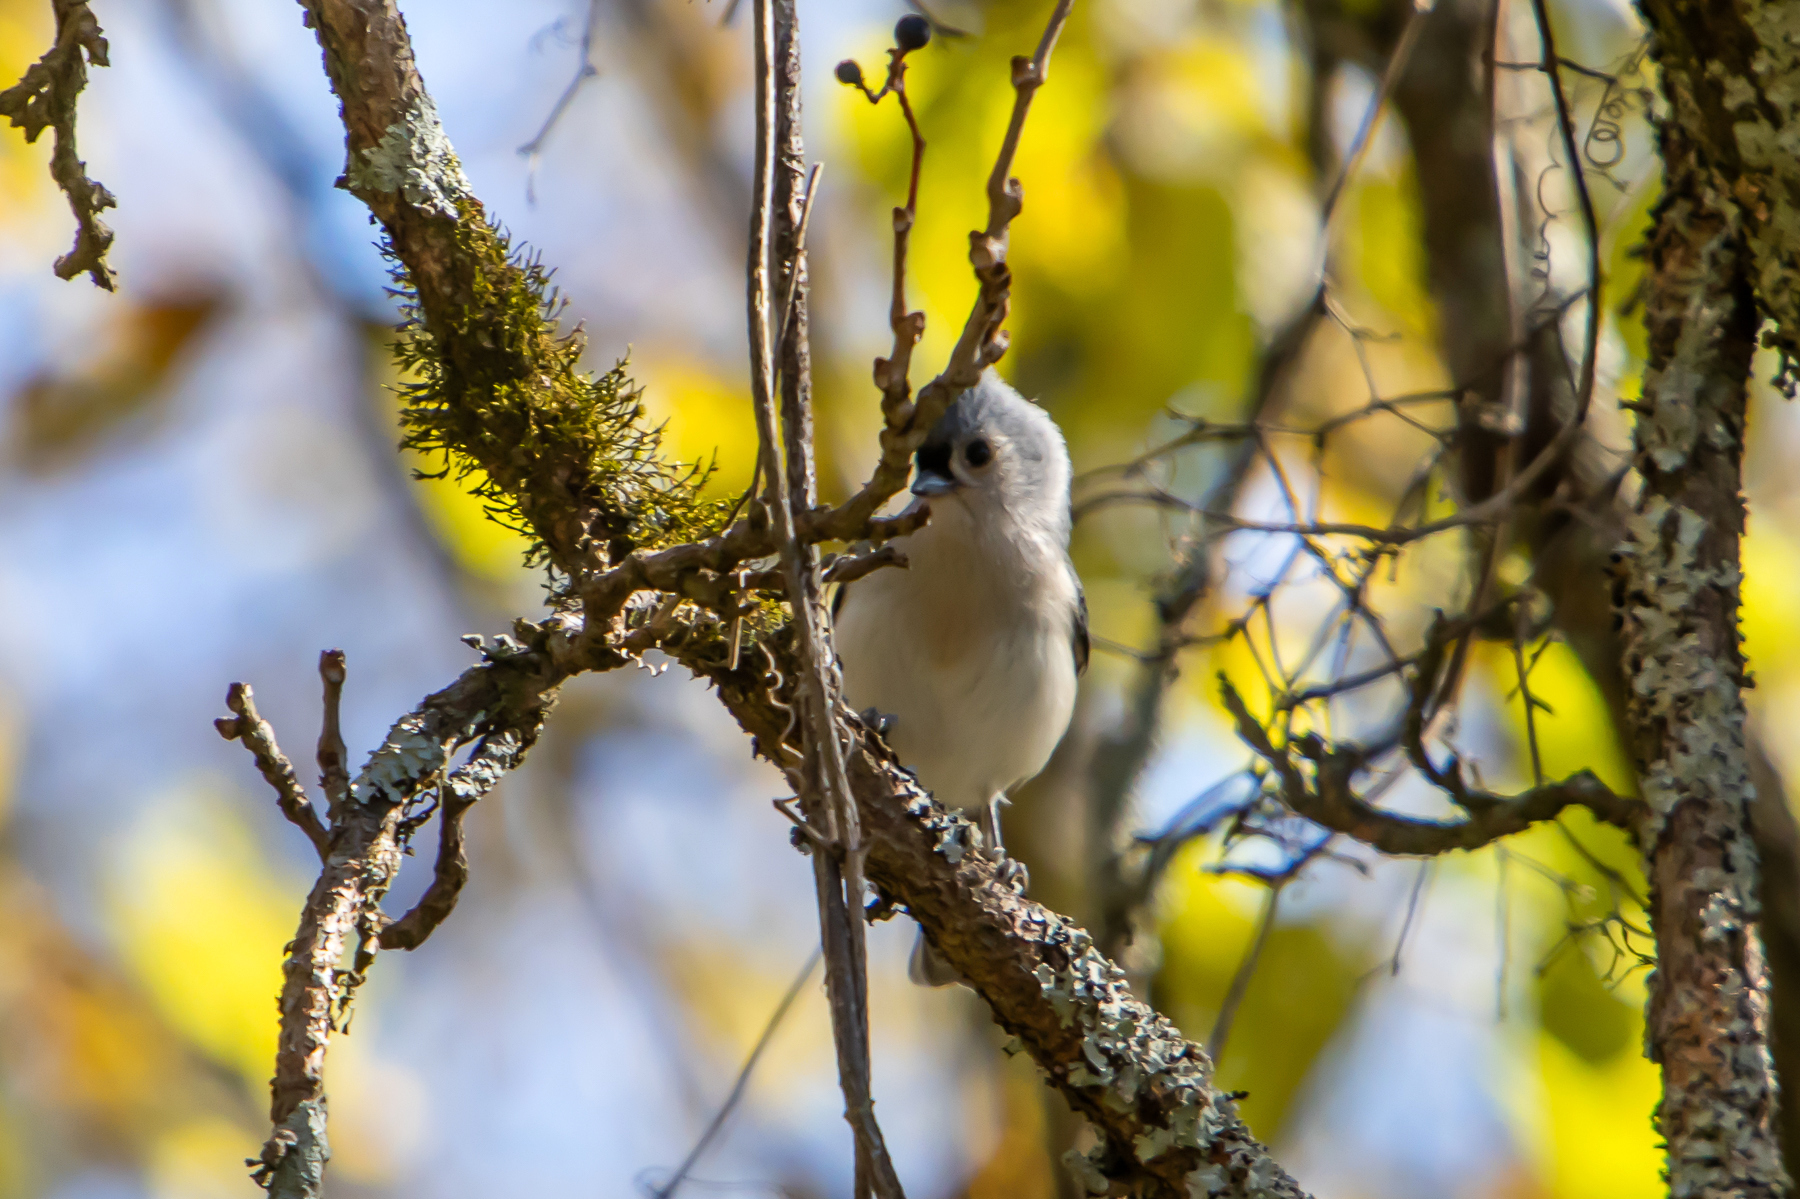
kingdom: Animalia
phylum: Chordata
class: Aves
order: Passeriformes
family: Paridae
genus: Baeolophus
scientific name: Baeolophus bicolor
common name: Tufted titmouse
